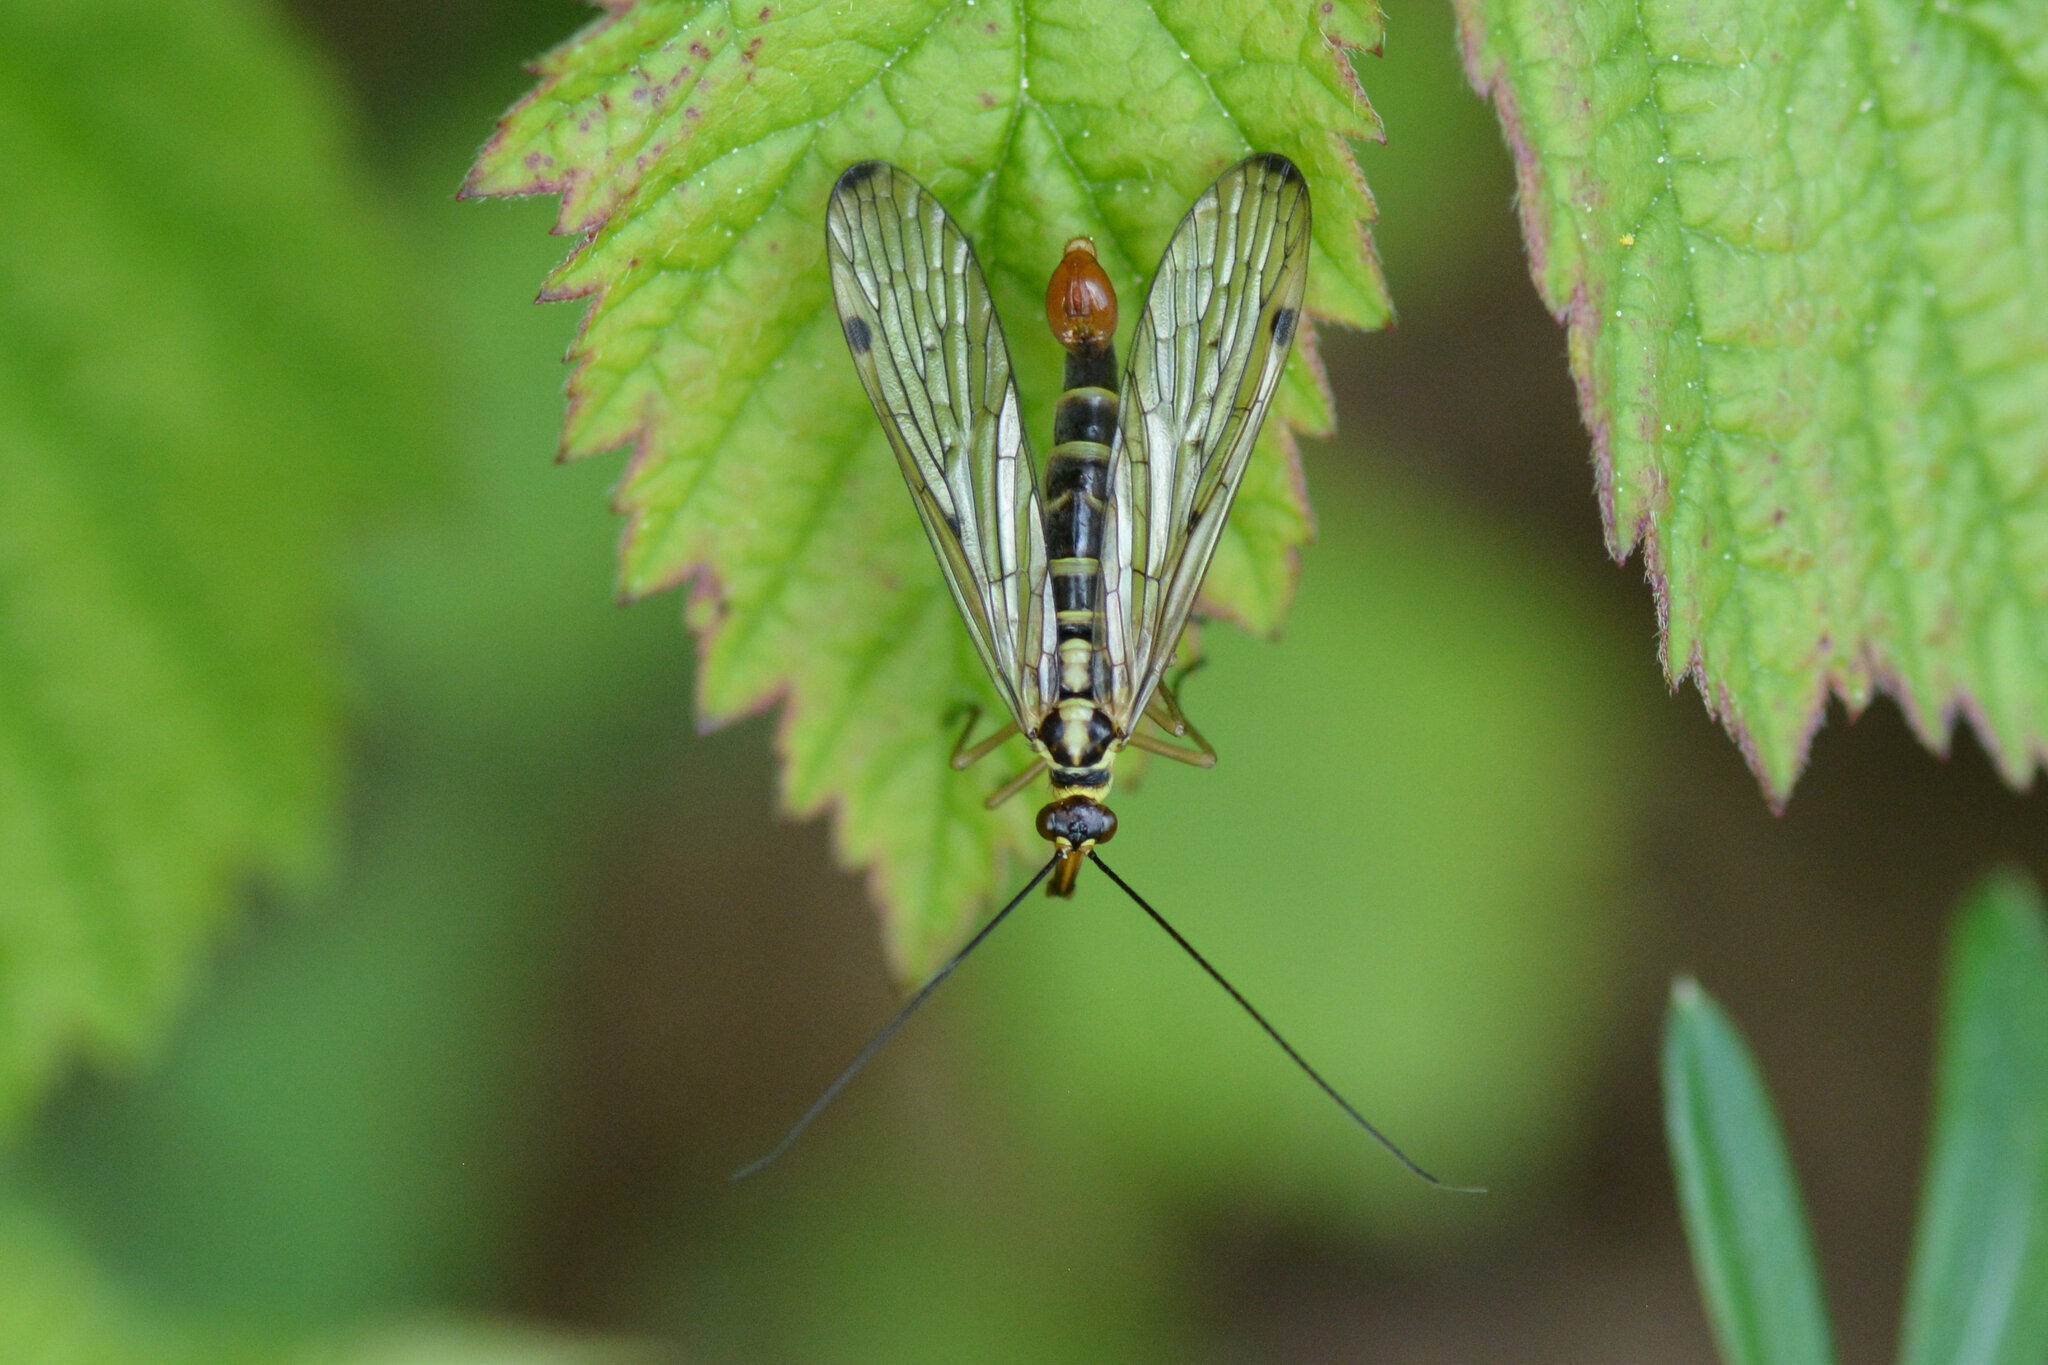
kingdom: Animalia
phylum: Arthropoda
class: Insecta
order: Mecoptera
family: Panorpidae
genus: Panorpa
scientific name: Panorpa germanica
